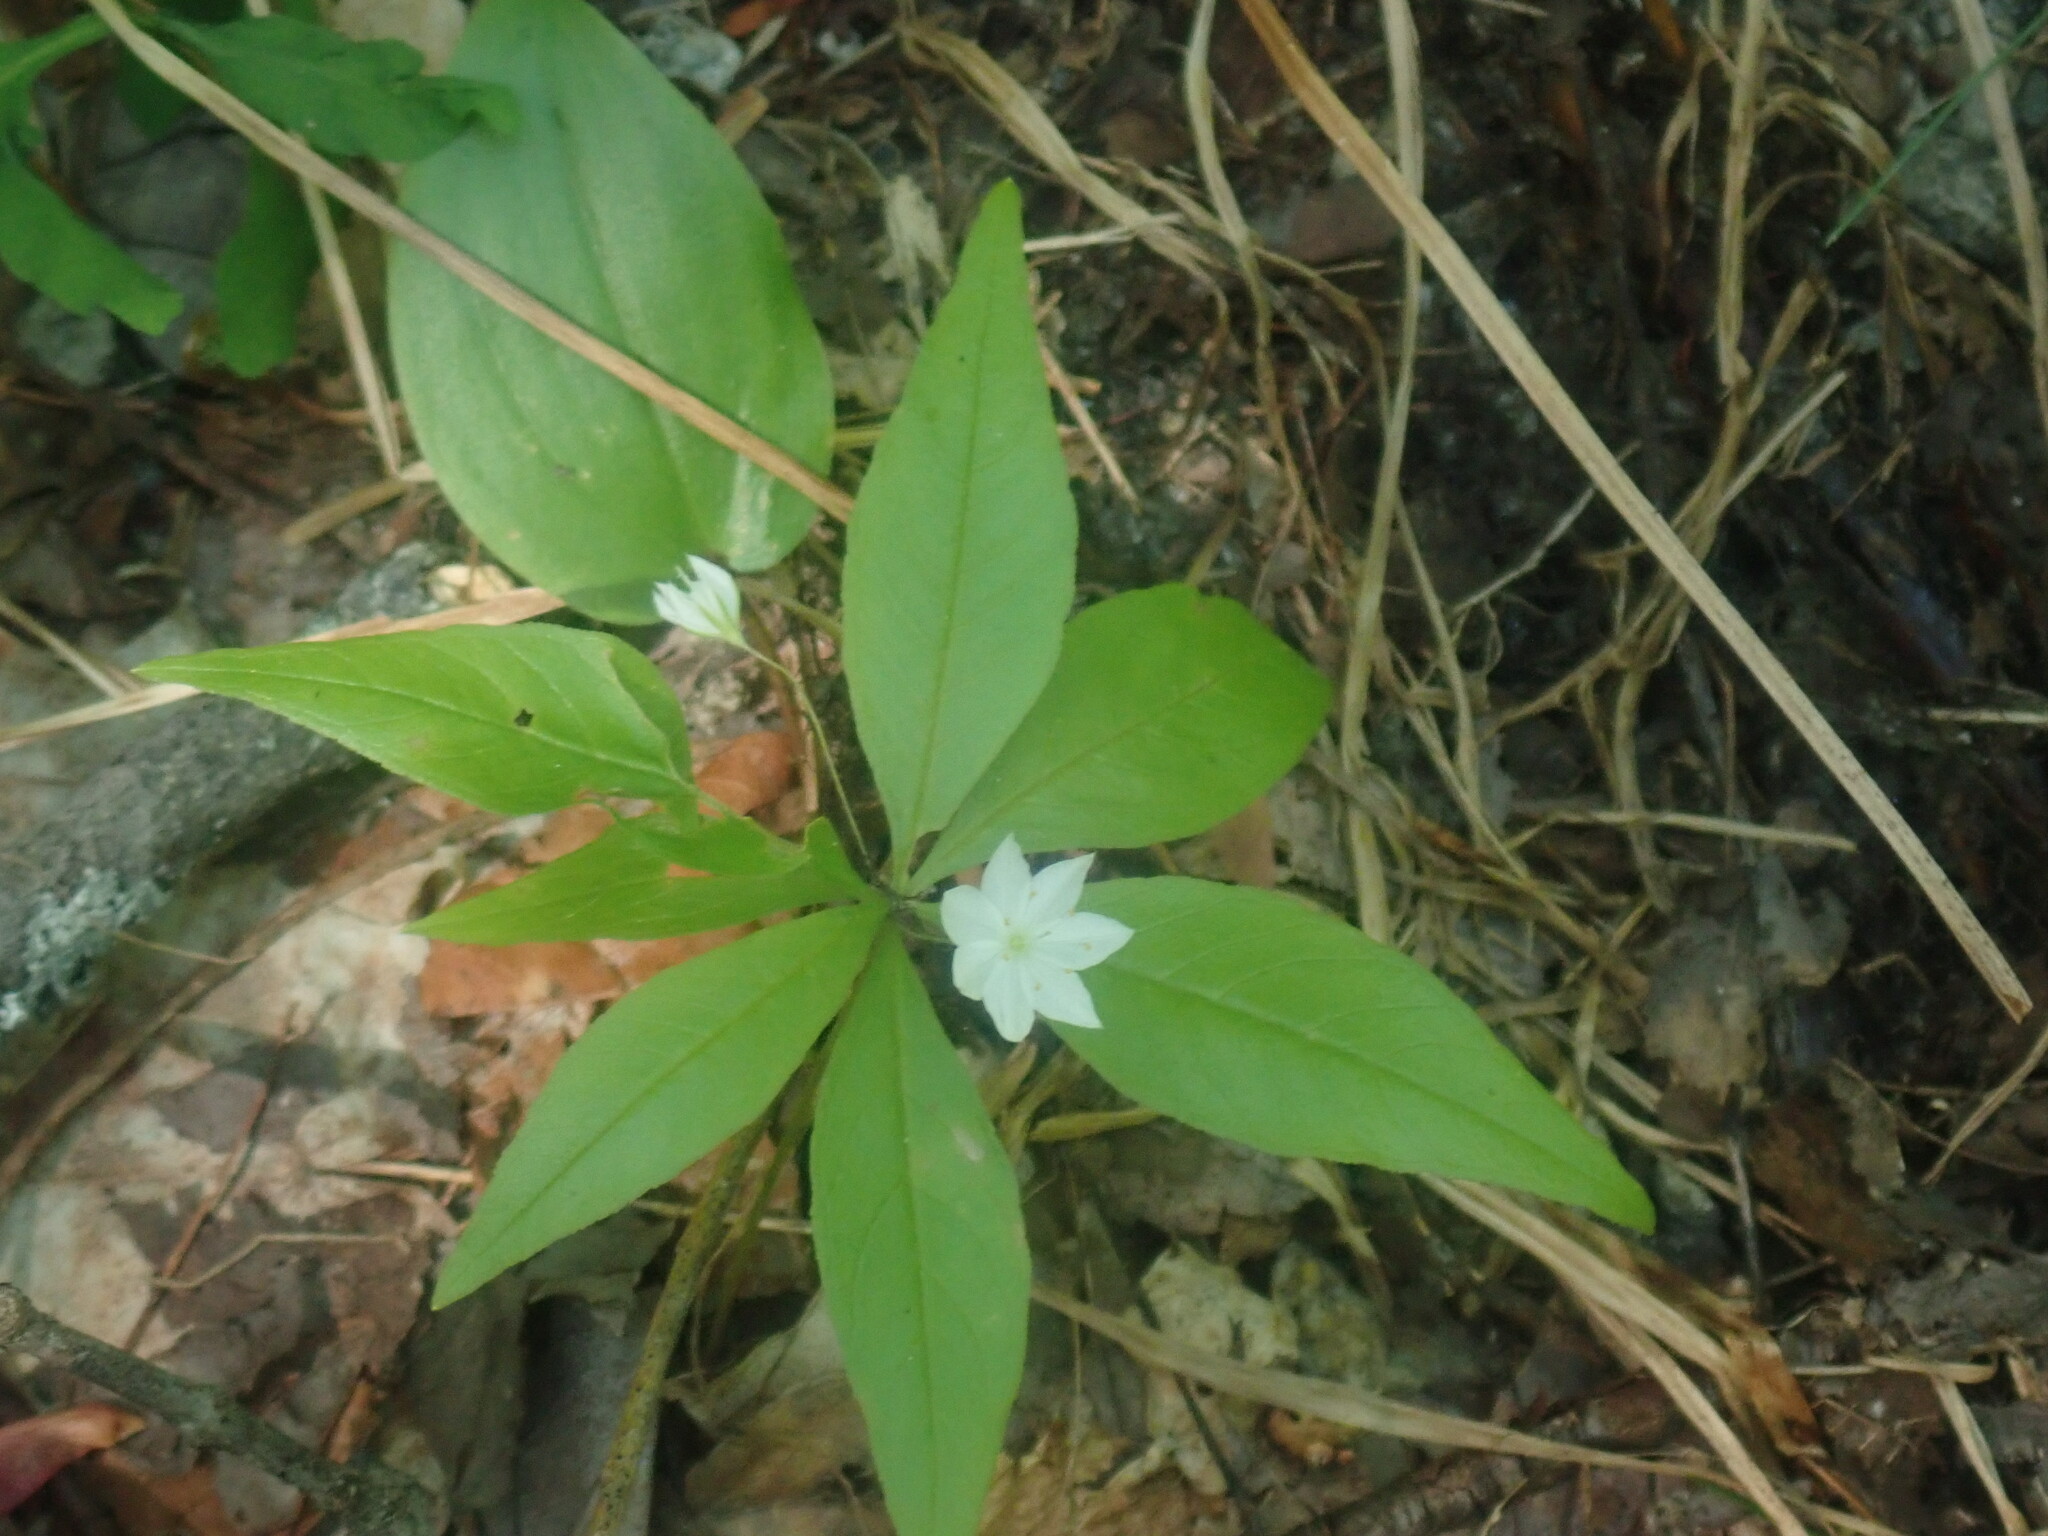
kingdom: Plantae
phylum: Tracheophyta
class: Magnoliopsida
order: Ericales
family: Primulaceae
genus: Lysimachia
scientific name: Lysimachia borealis
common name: American starflower
